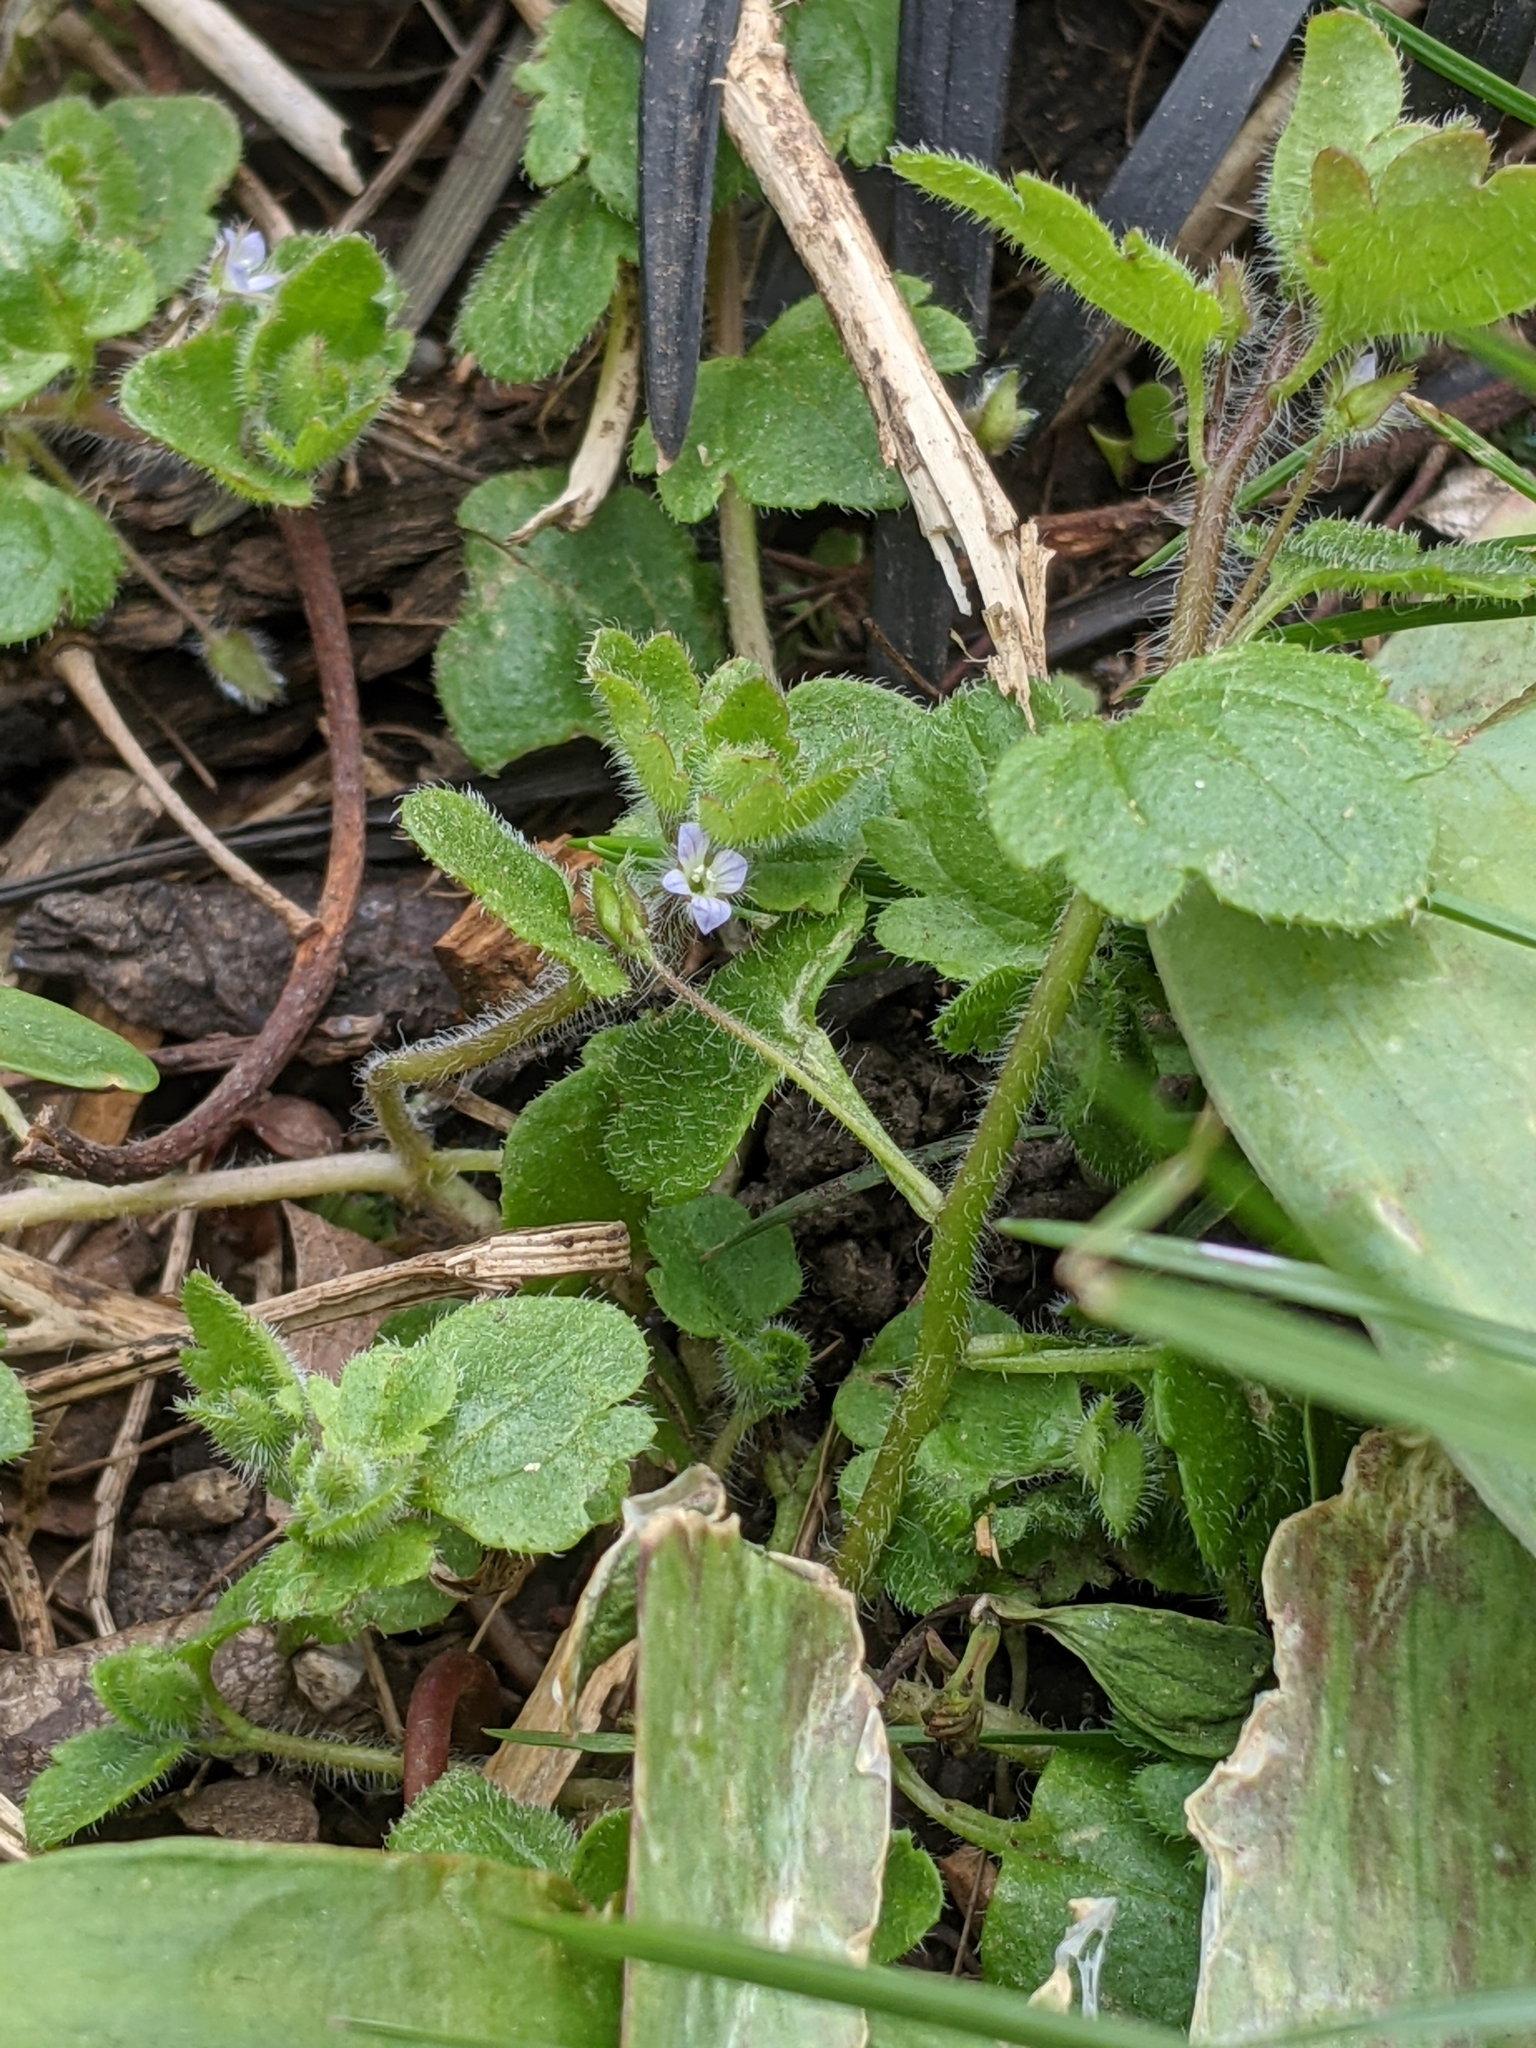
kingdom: Plantae
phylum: Tracheophyta
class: Magnoliopsida
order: Lamiales
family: Plantaginaceae
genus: Veronica
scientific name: Veronica sublobata
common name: False ivy-leaved speedwell
